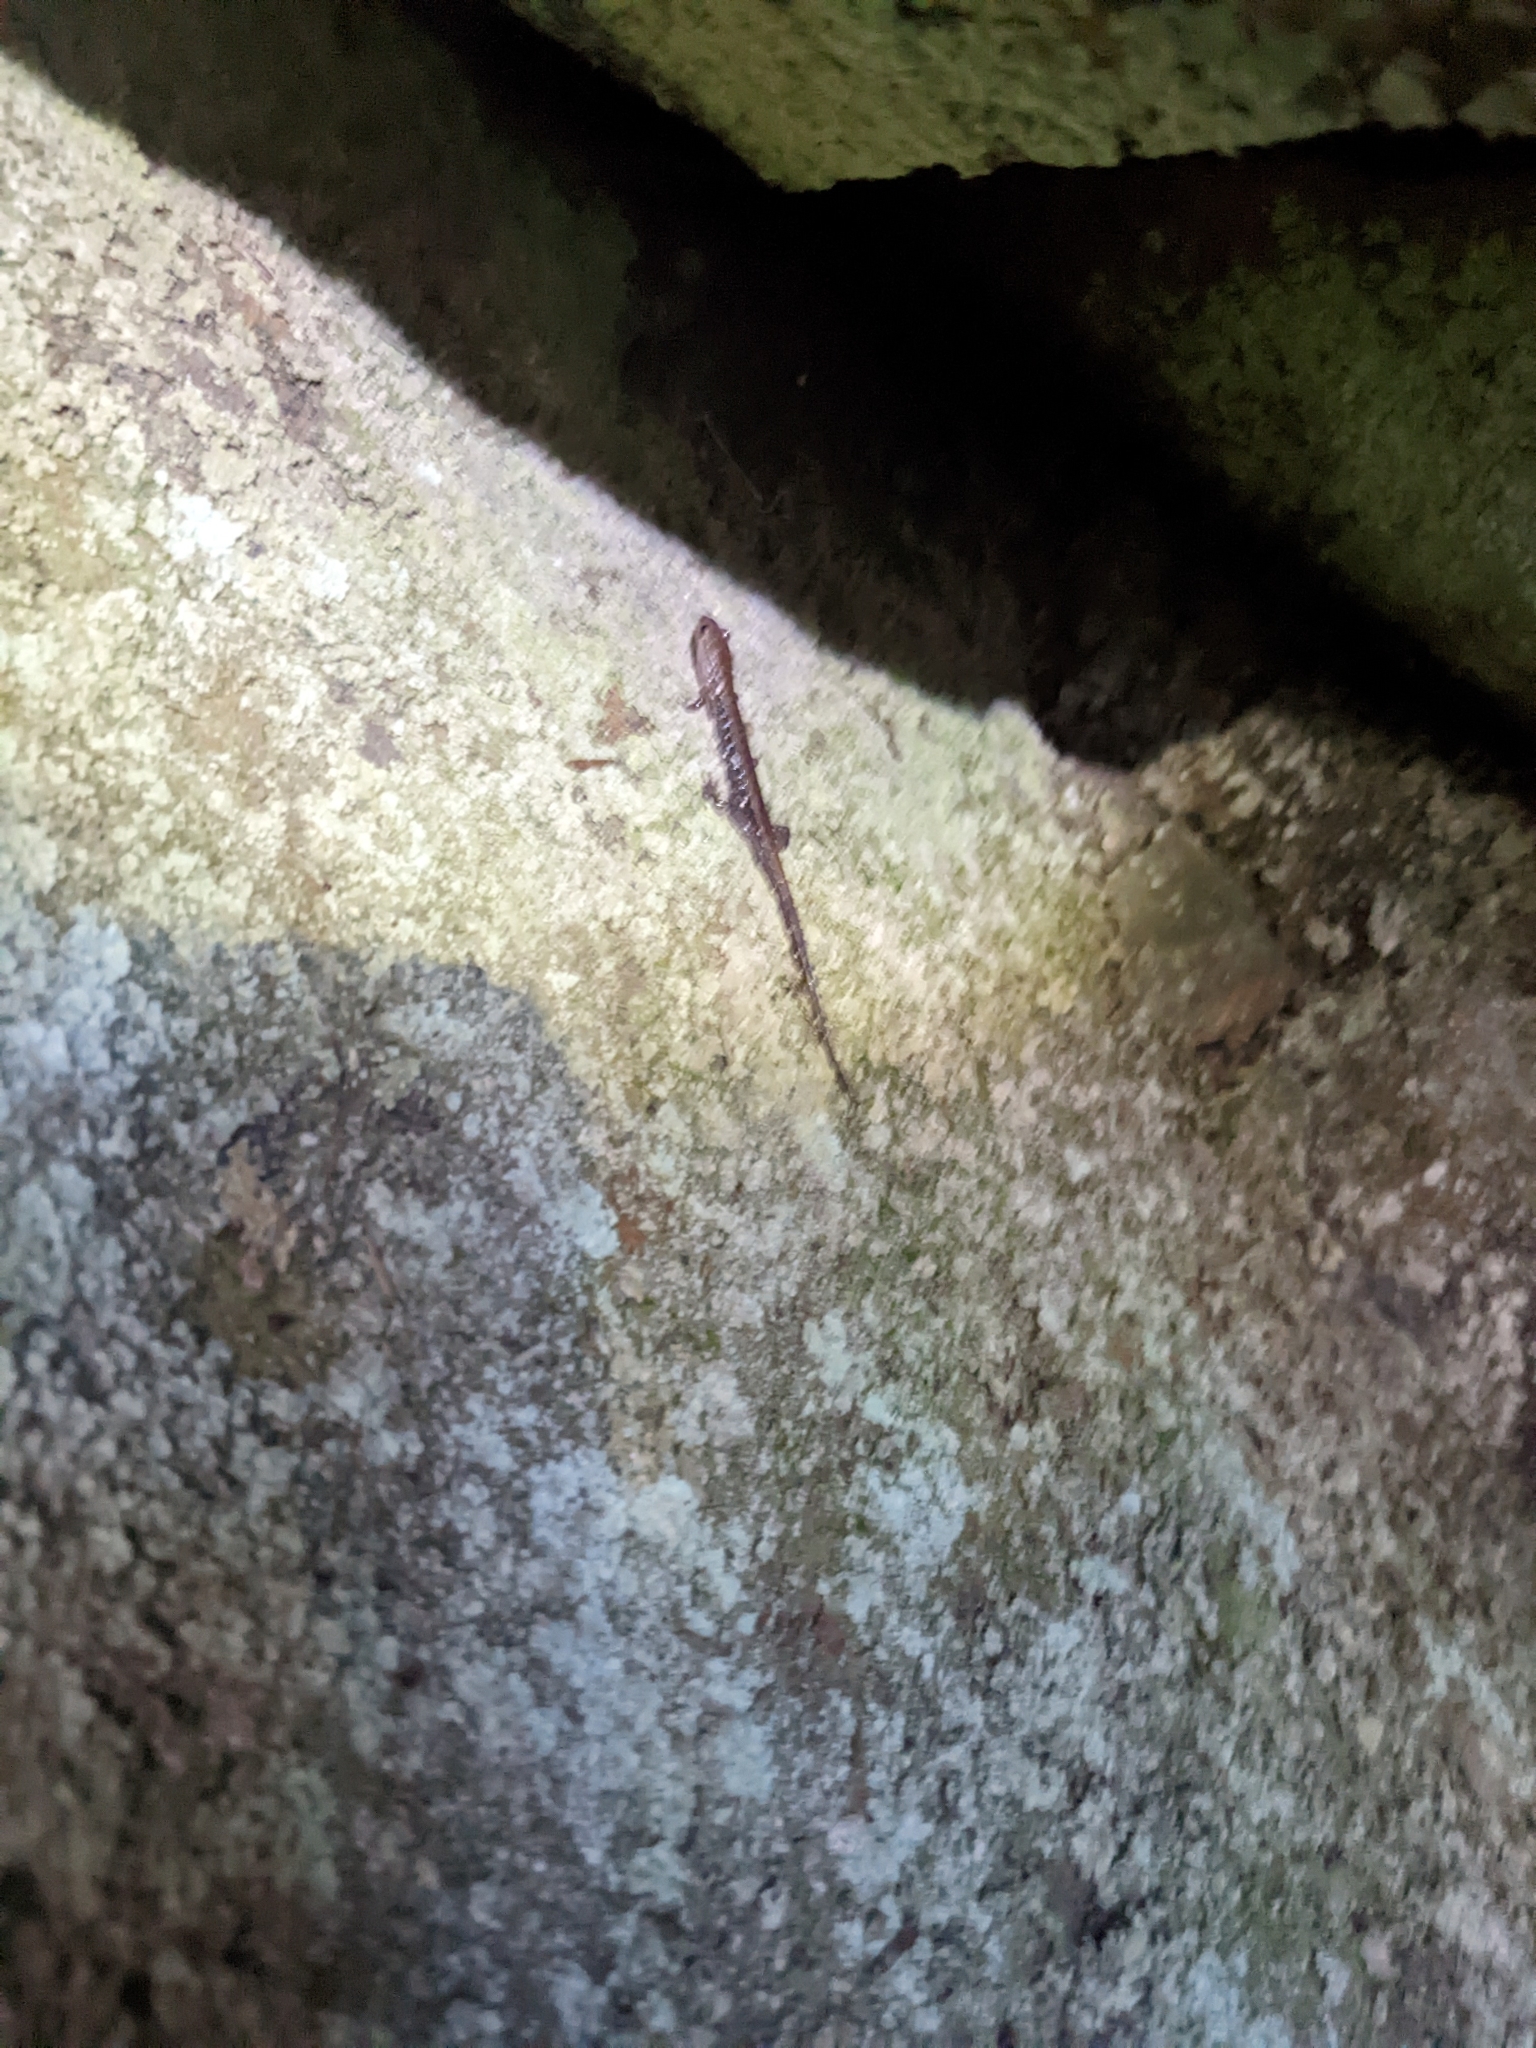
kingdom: Animalia
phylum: Chordata
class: Amphibia
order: Caudata
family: Plethodontidae
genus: Desmognathus
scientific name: Desmognathus ochrophaeus
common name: Allegheny mountain dusky salamander
